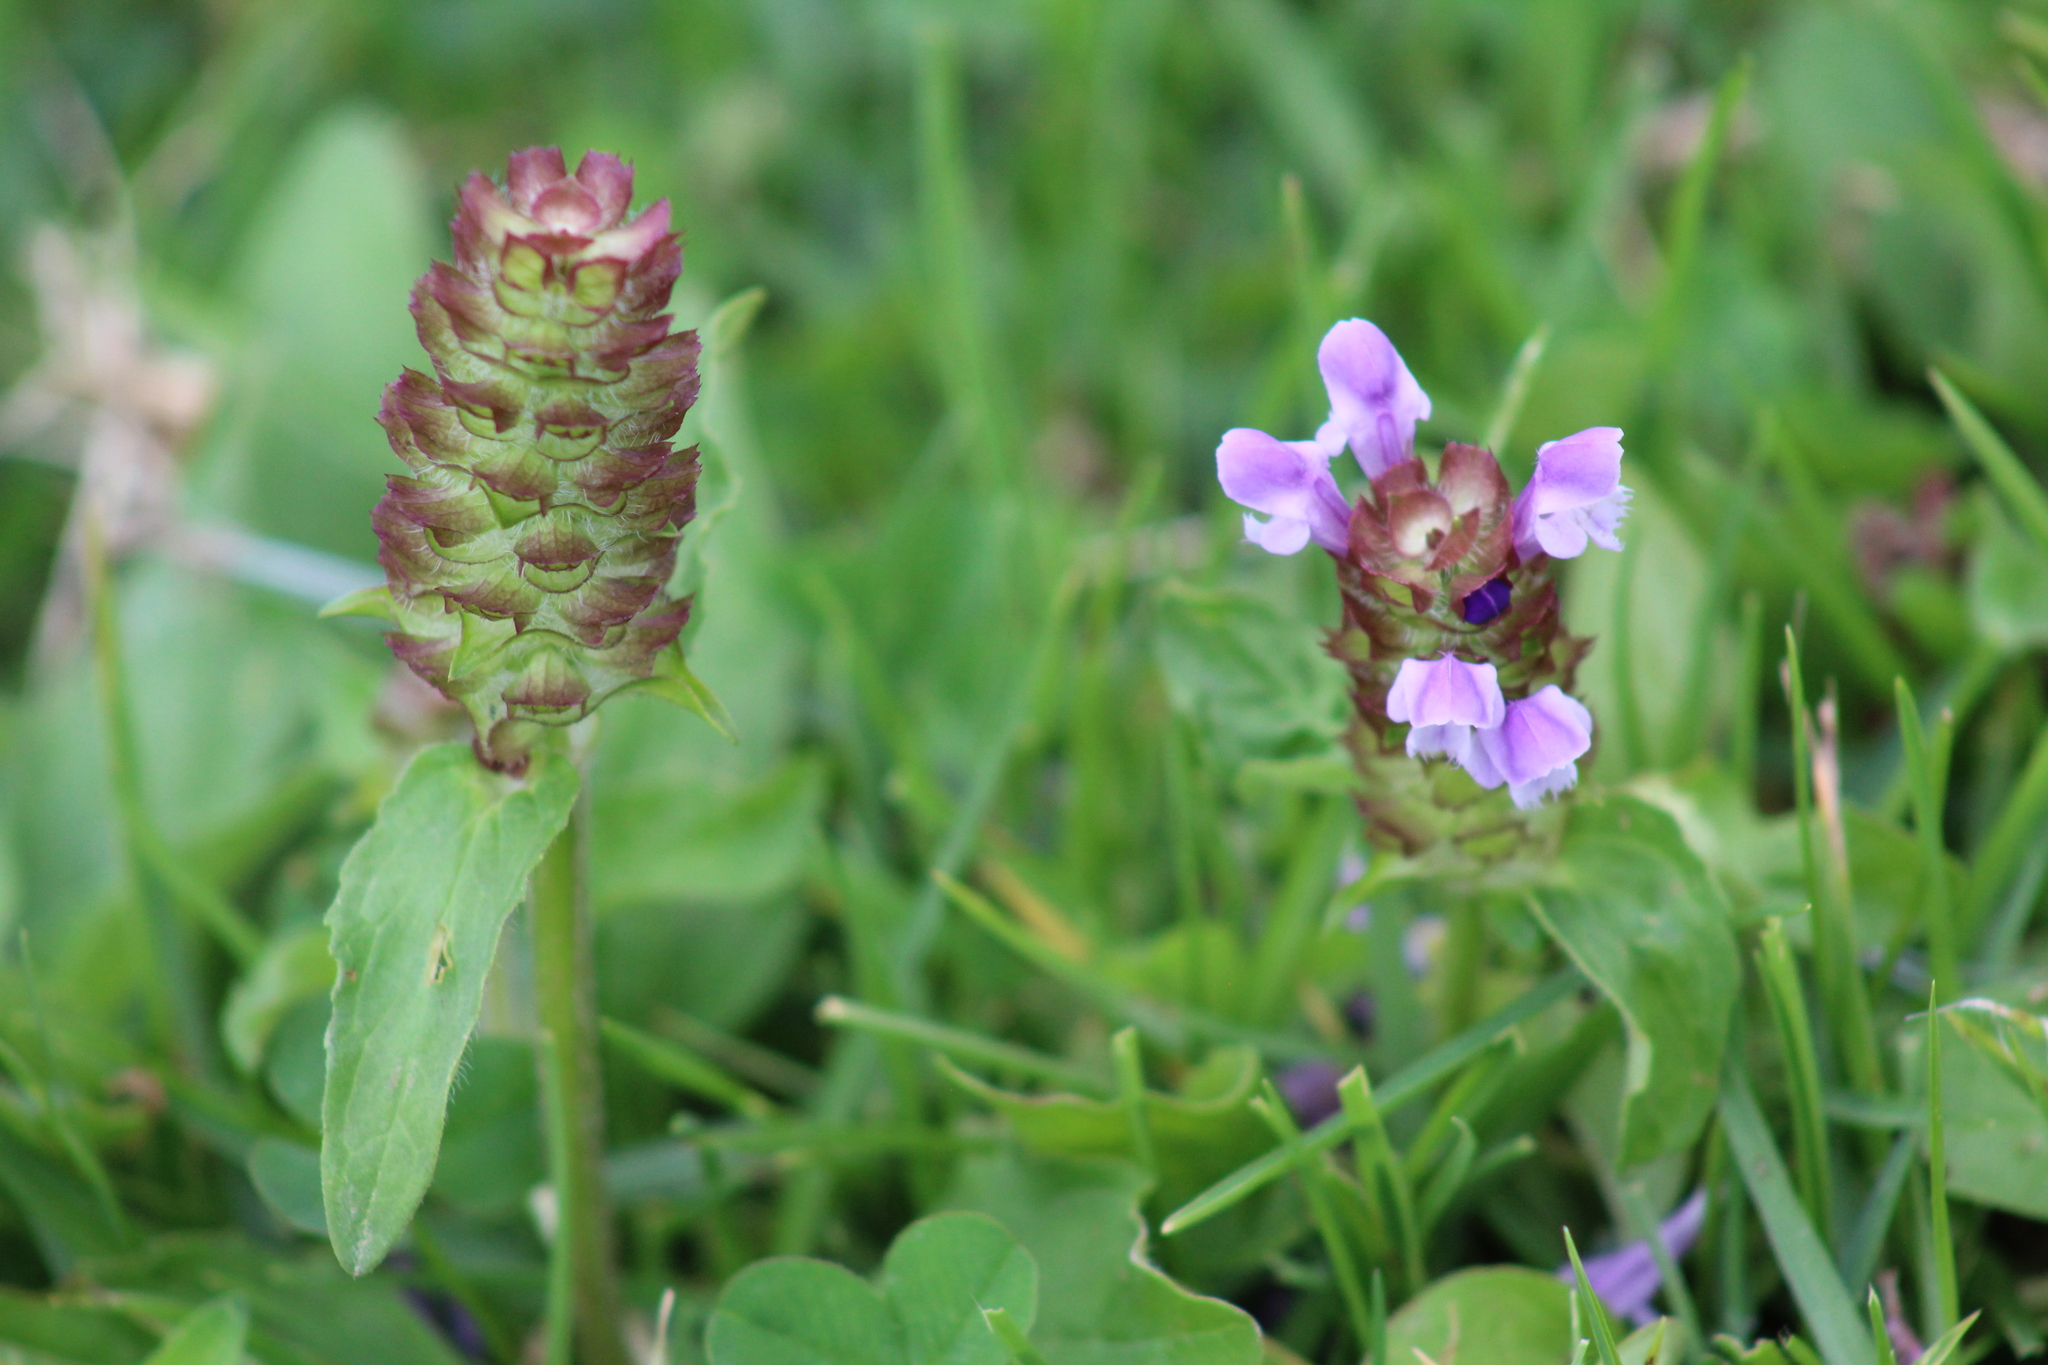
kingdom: Plantae
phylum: Tracheophyta
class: Magnoliopsida
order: Lamiales
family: Lamiaceae
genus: Prunella
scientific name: Prunella vulgaris
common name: Heal-all
